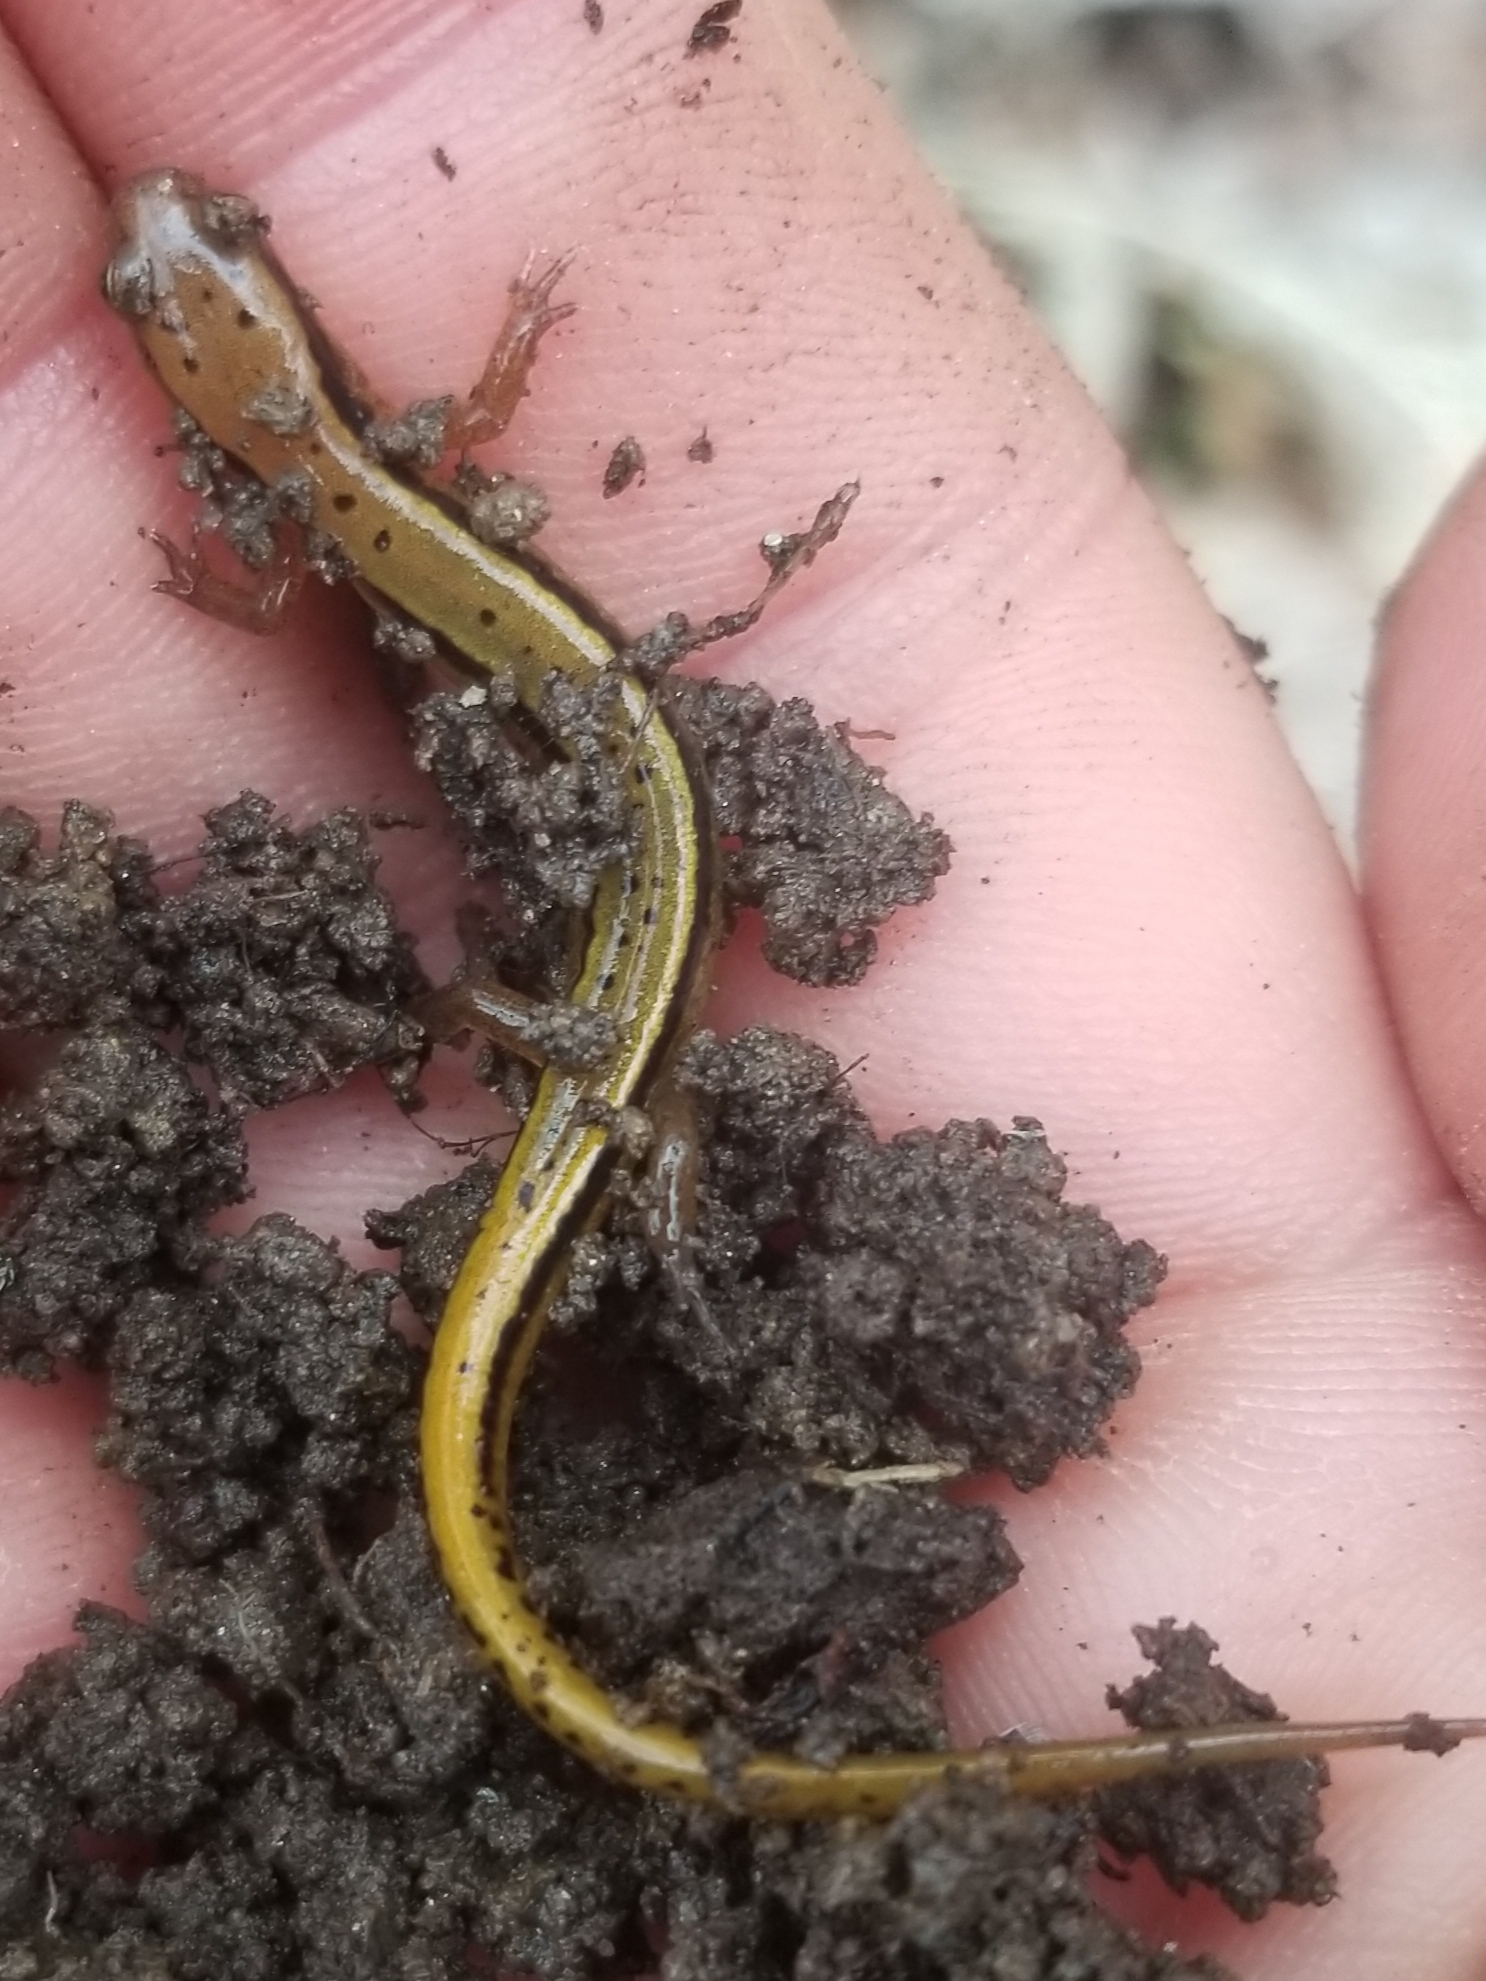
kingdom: Animalia
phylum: Chordata
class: Amphibia
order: Caudata
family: Plethodontidae
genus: Eurycea
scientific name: Eurycea wilderae
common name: Blue ridge two-lined salamander
